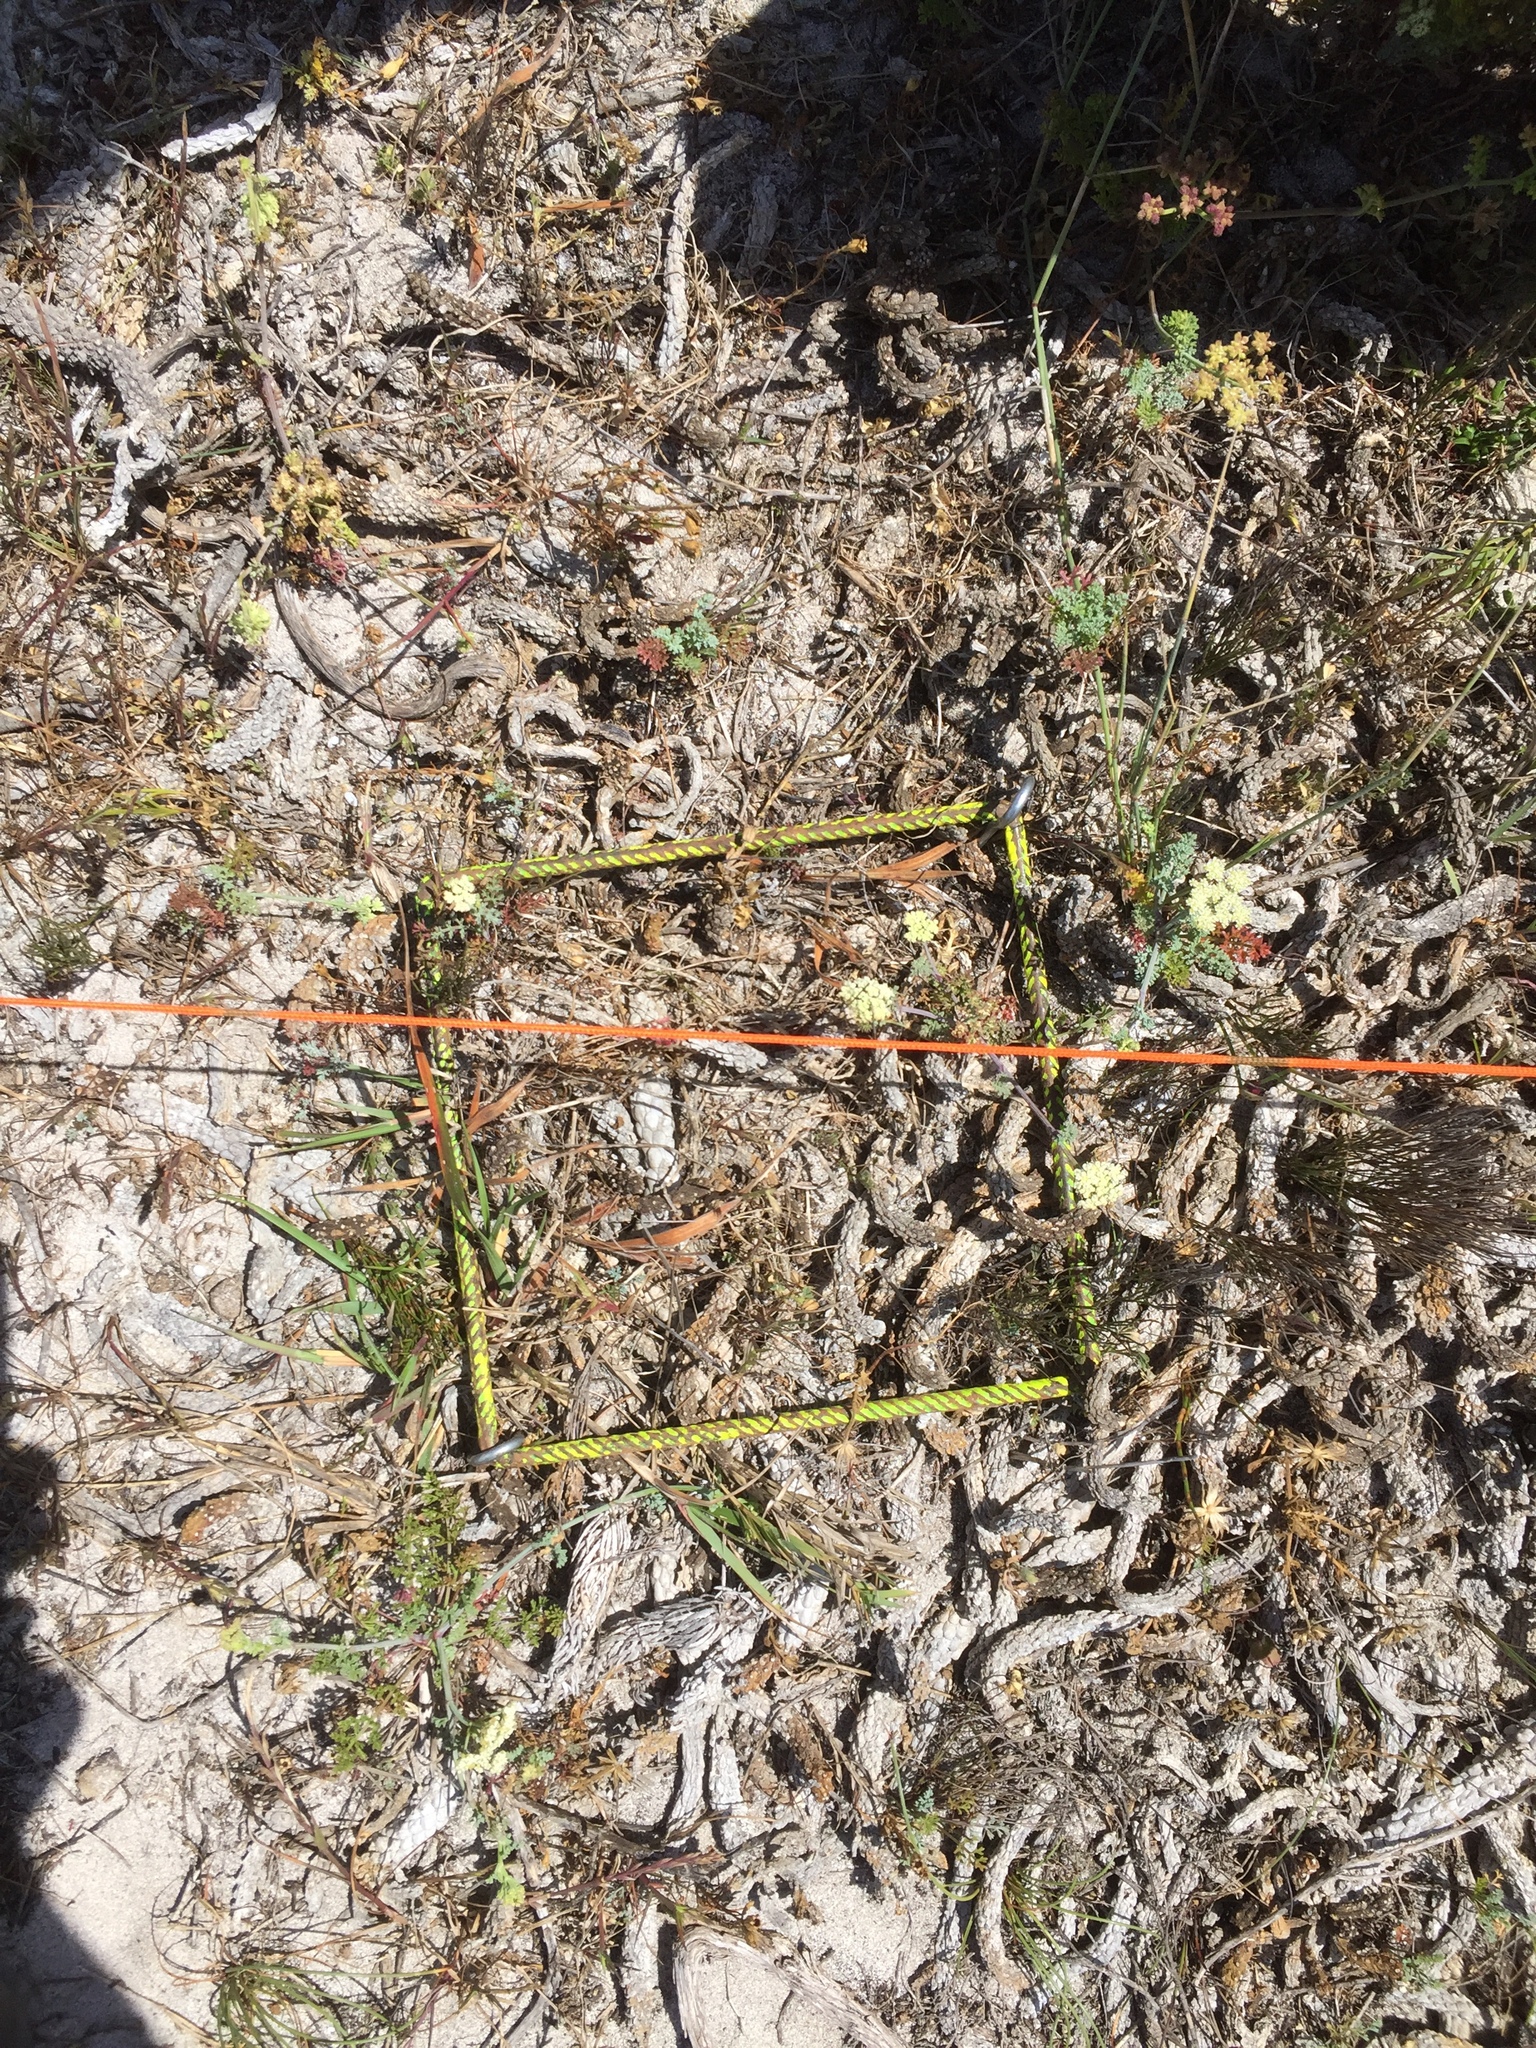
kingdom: Plantae
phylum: Tracheophyta
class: Magnoliopsida
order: Apiales
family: Apiaceae
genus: Dasispermum
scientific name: Dasispermum suffruticosum
